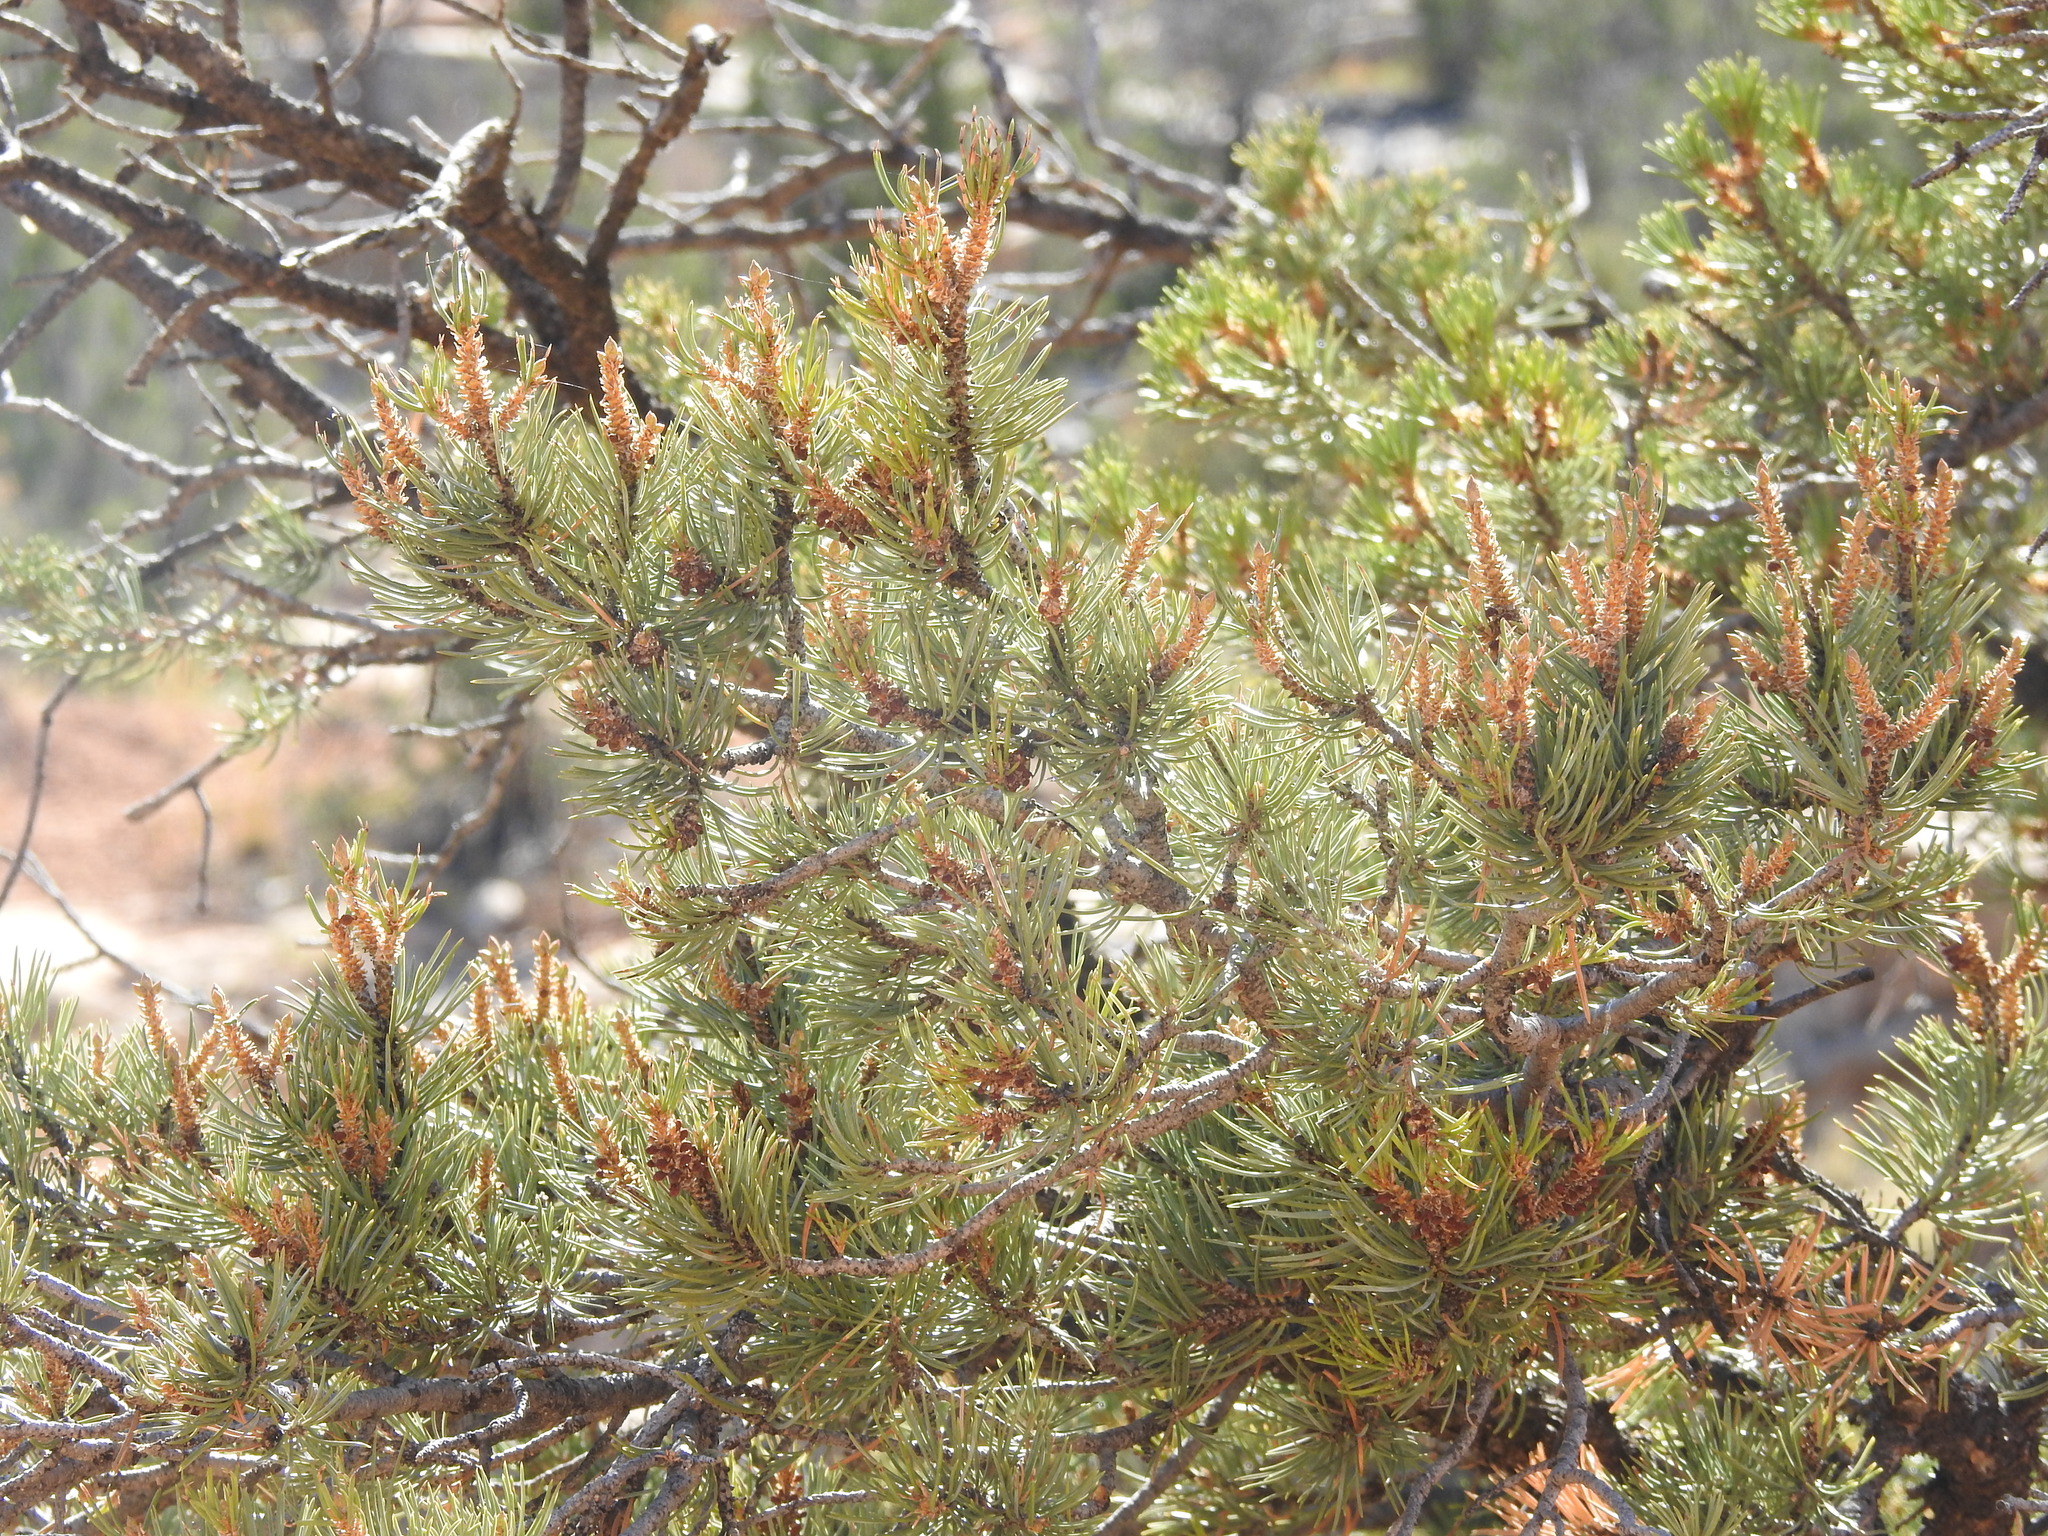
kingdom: Plantae
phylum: Tracheophyta
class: Pinopsida
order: Pinales
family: Pinaceae
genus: Pinus
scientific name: Pinus edulis
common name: Colorado pinyon
